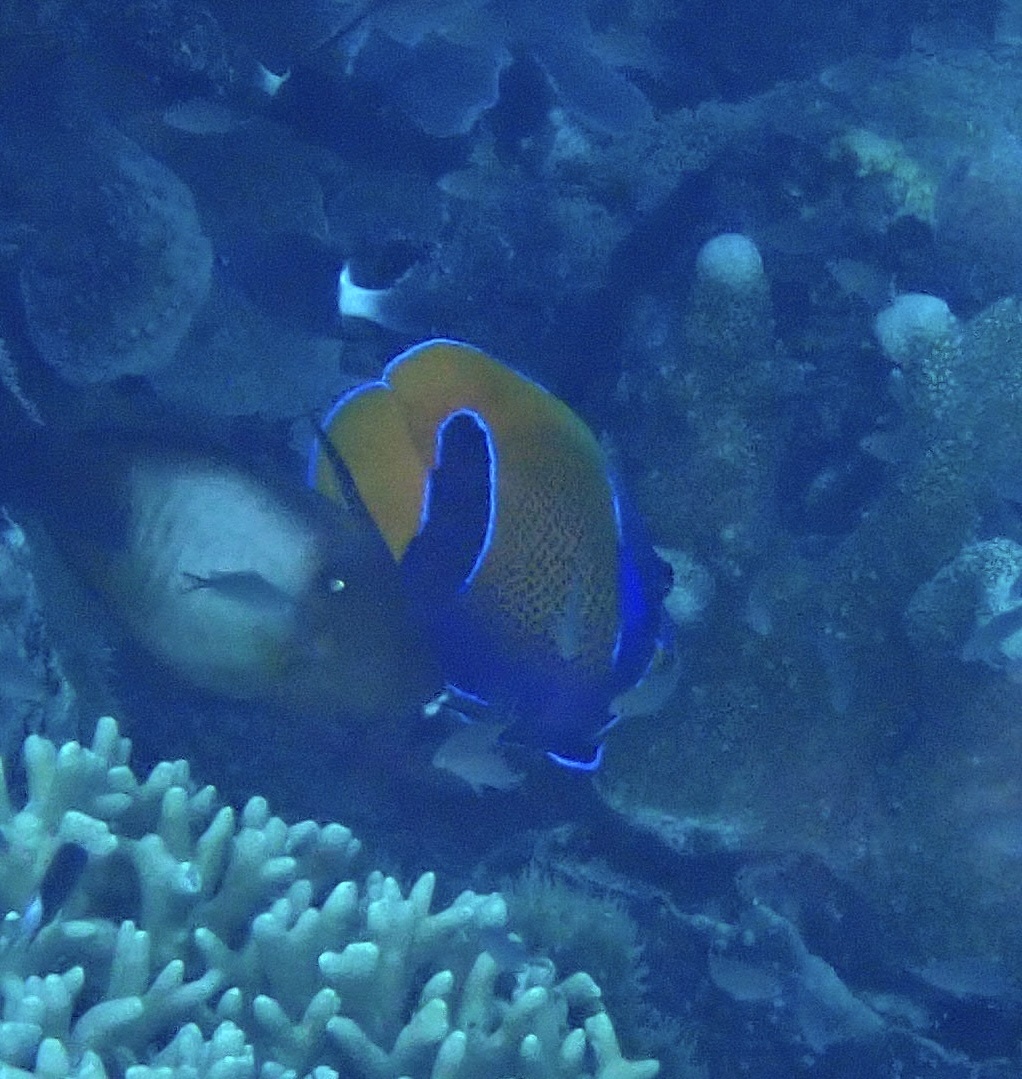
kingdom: Animalia
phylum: Chordata
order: Perciformes
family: Pomacanthidae
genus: Pomacanthus
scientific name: Pomacanthus navarchus
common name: Blue-girdled angelfish
